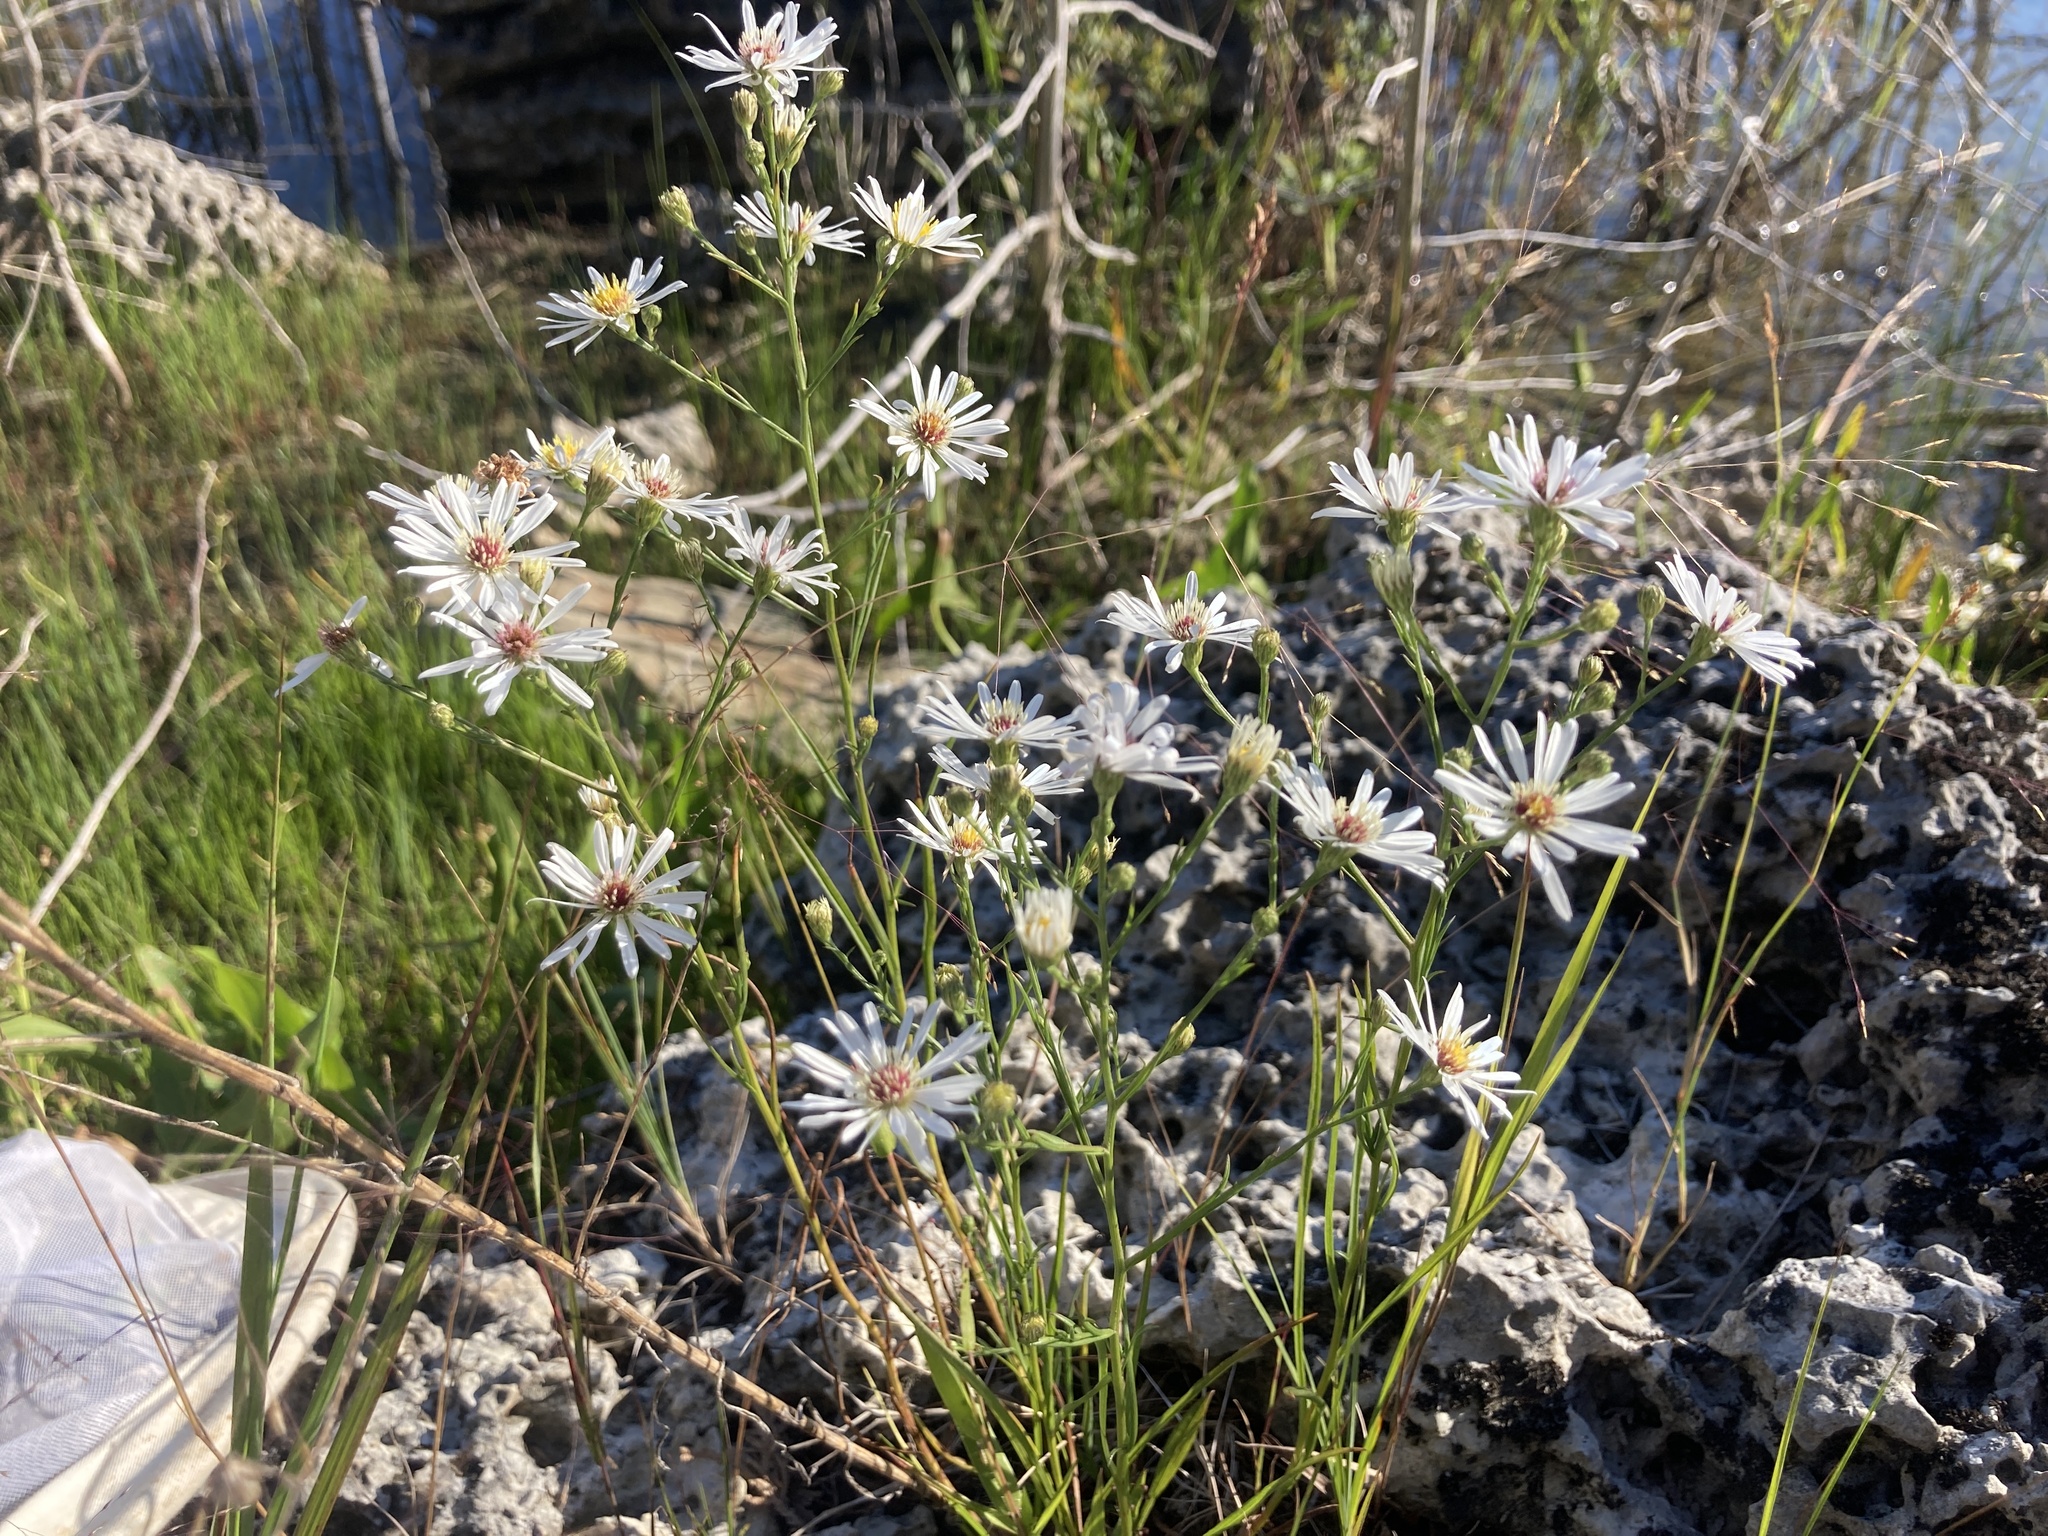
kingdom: Plantae
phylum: Tracheophyta
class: Magnoliopsida
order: Asterales
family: Asteraceae
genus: Symphyotrichum
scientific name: Symphyotrichum boreale
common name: Northern bog aster
